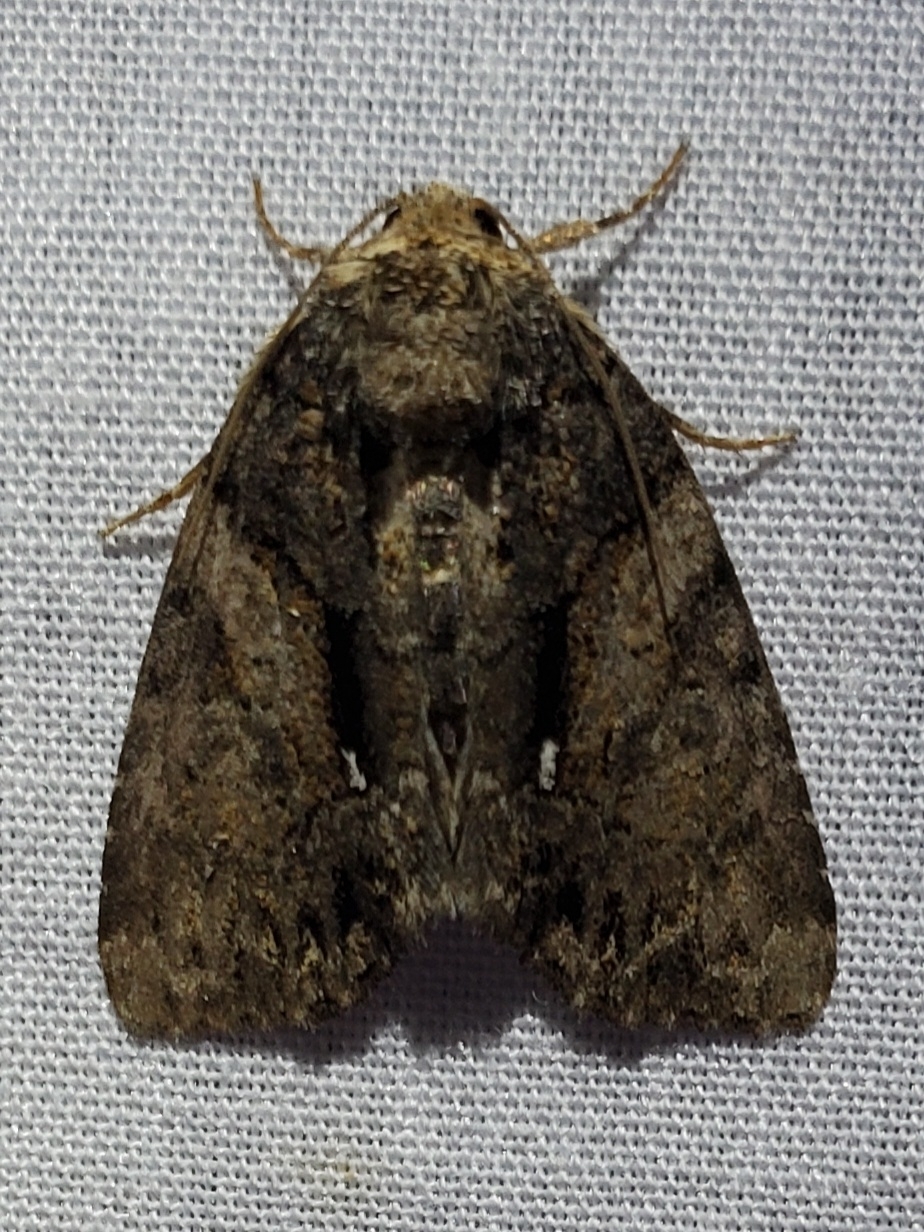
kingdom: Animalia
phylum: Arthropoda
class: Insecta
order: Lepidoptera
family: Noctuidae
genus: Chytonix
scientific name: Chytonix palliatricula
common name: Cloaked marvel
